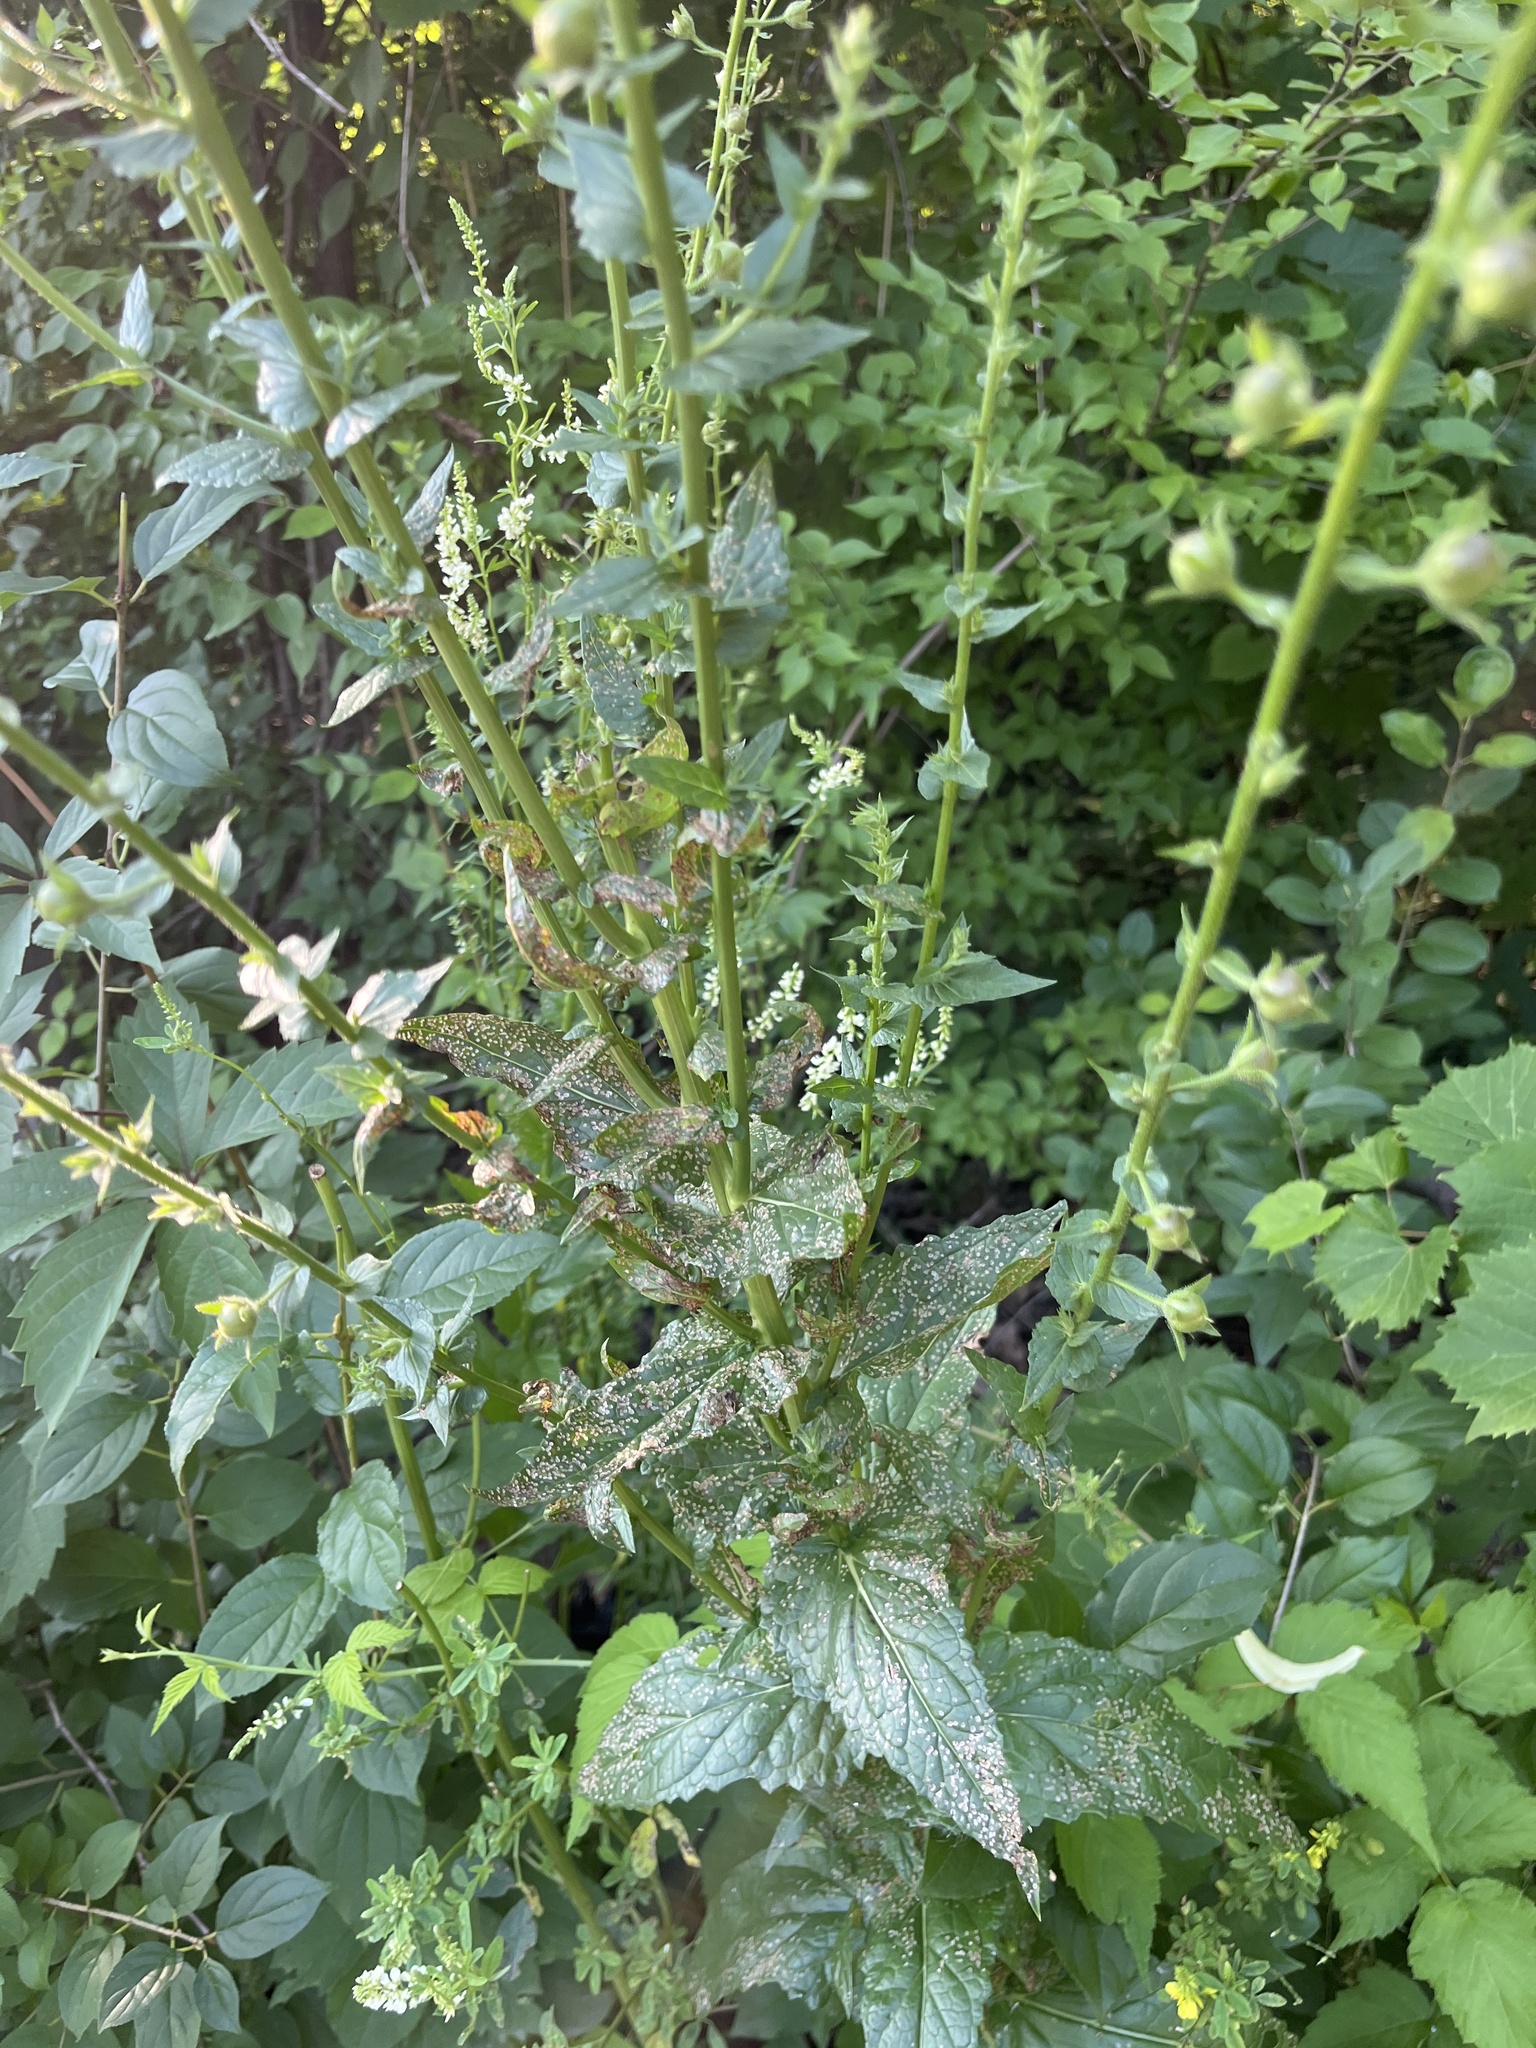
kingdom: Plantae
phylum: Tracheophyta
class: Magnoliopsida
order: Lamiales
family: Scrophulariaceae
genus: Verbascum
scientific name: Verbascum blattaria
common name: Moth mullein
